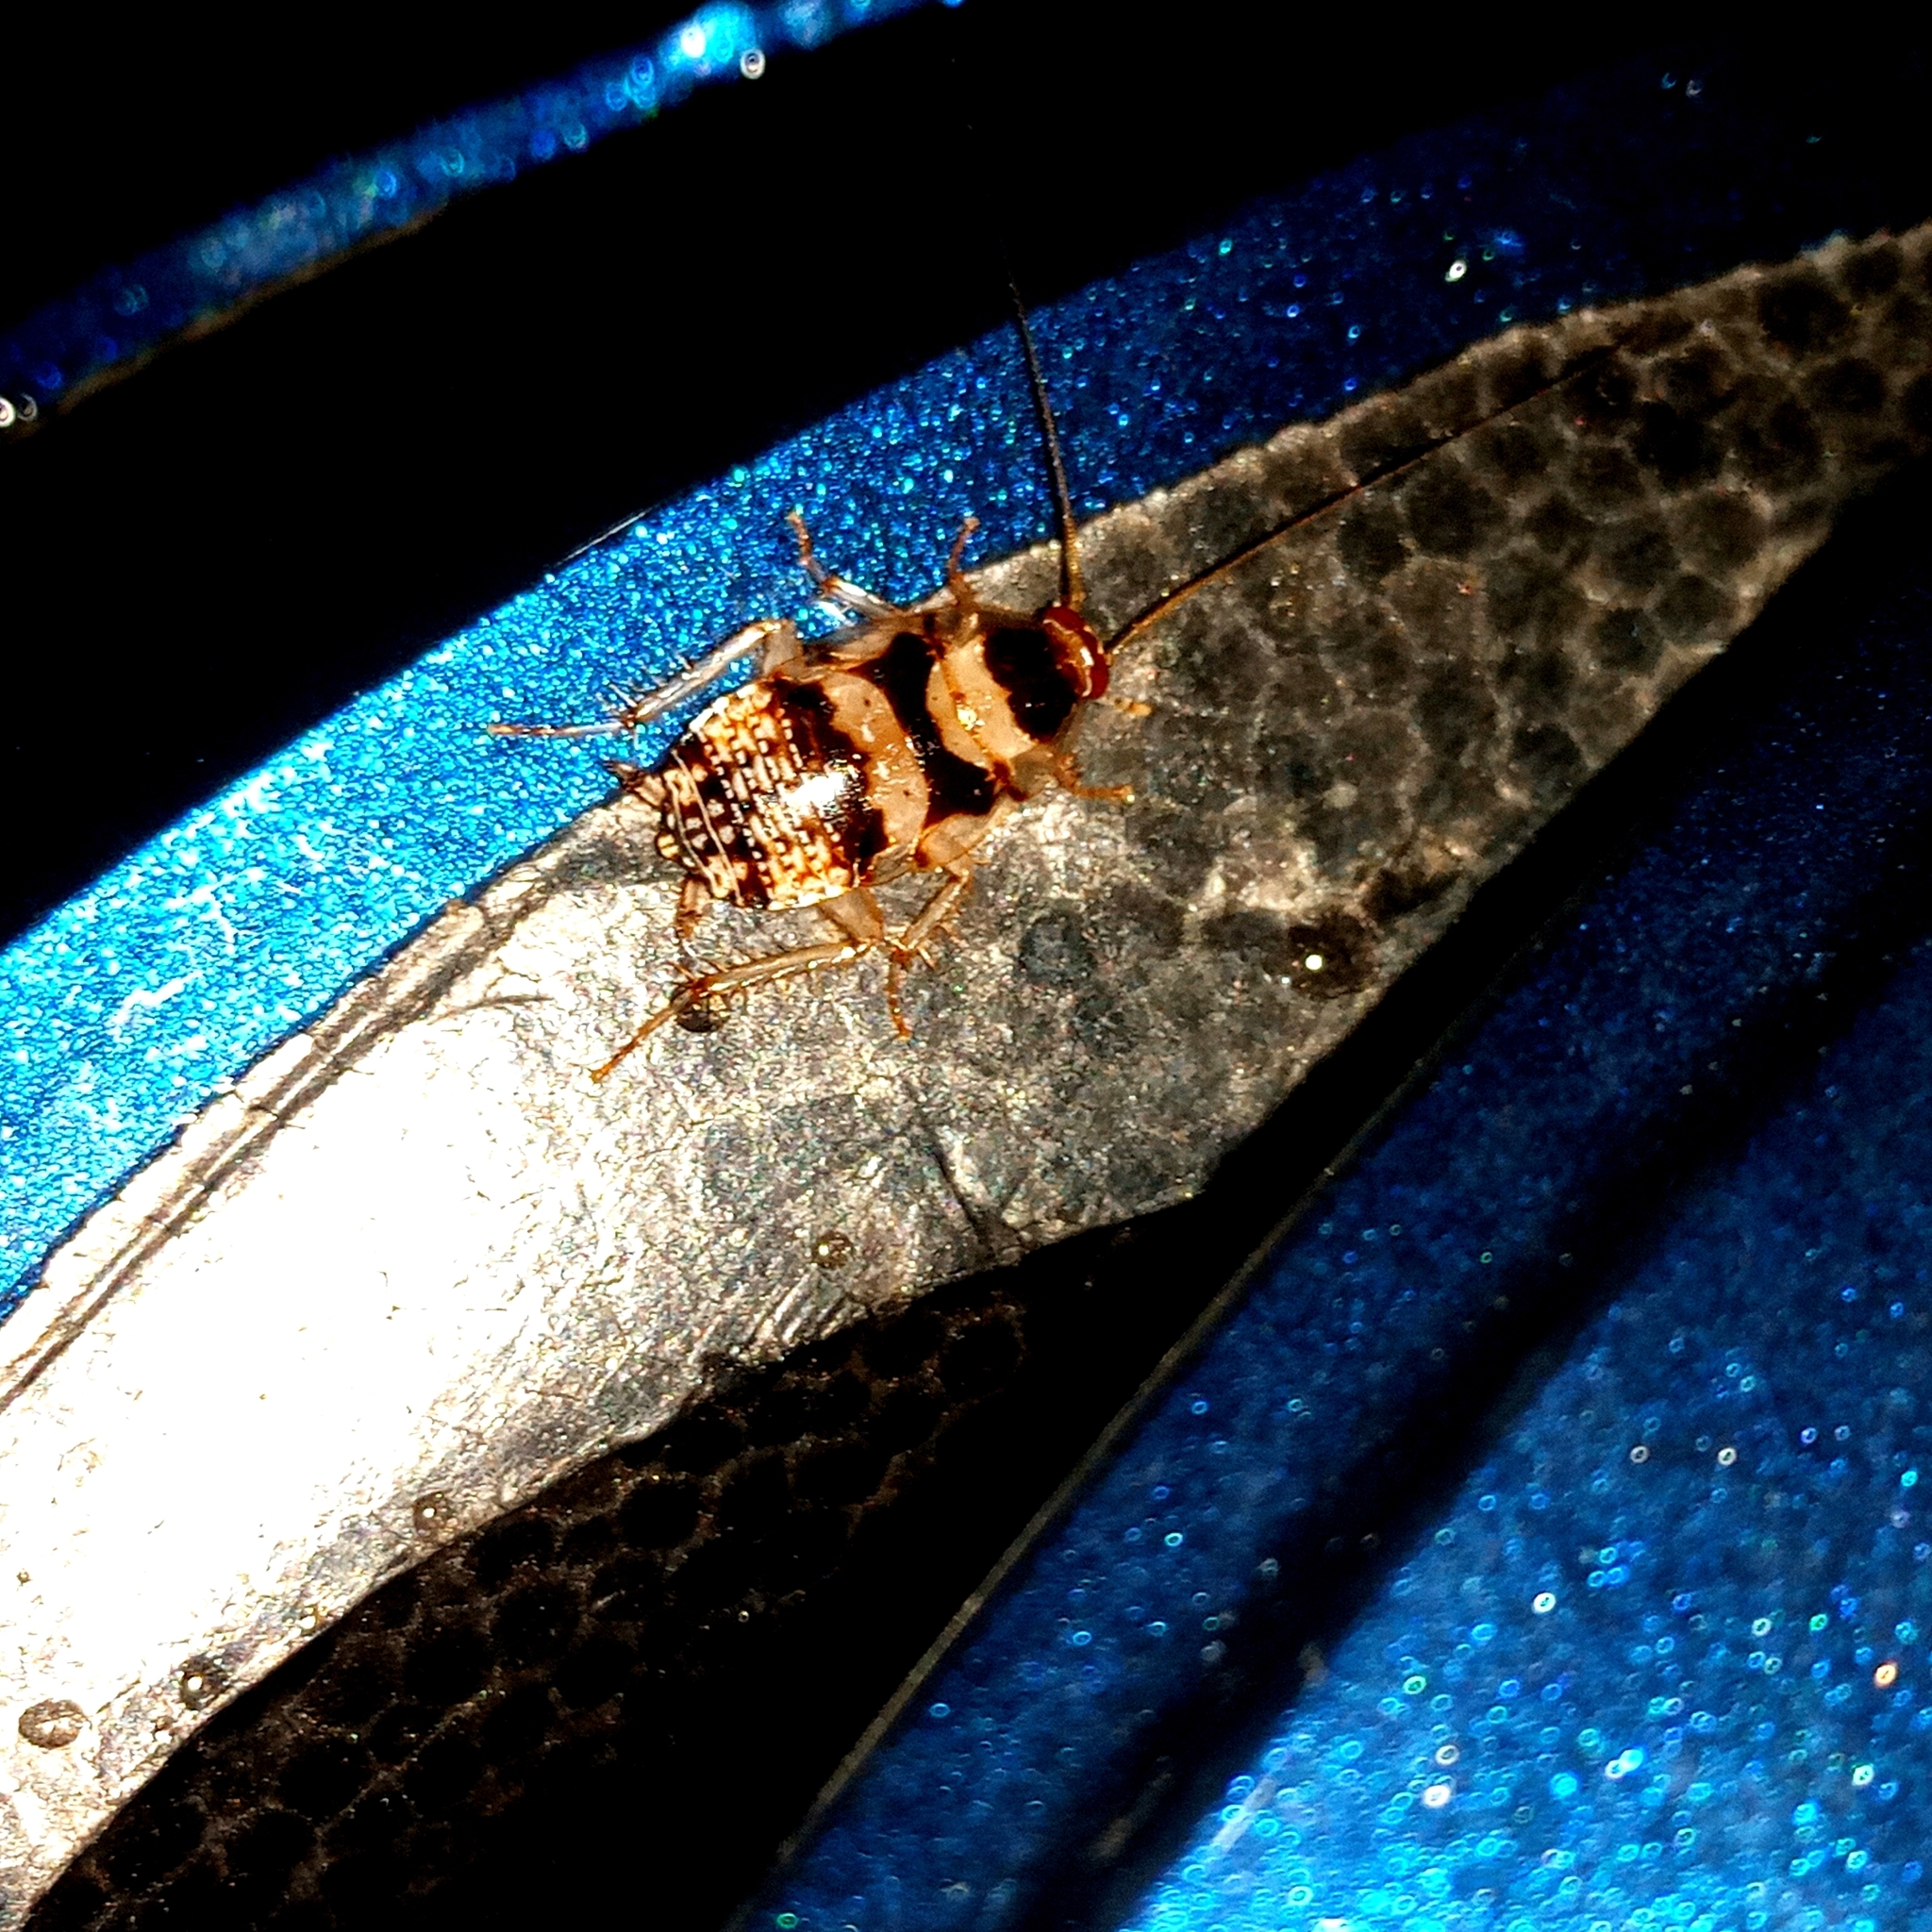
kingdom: Animalia
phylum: Arthropoda
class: Insecta
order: Blattodea
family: Ectobiidae
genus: Balta
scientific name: Balta notulata
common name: Cockroach
